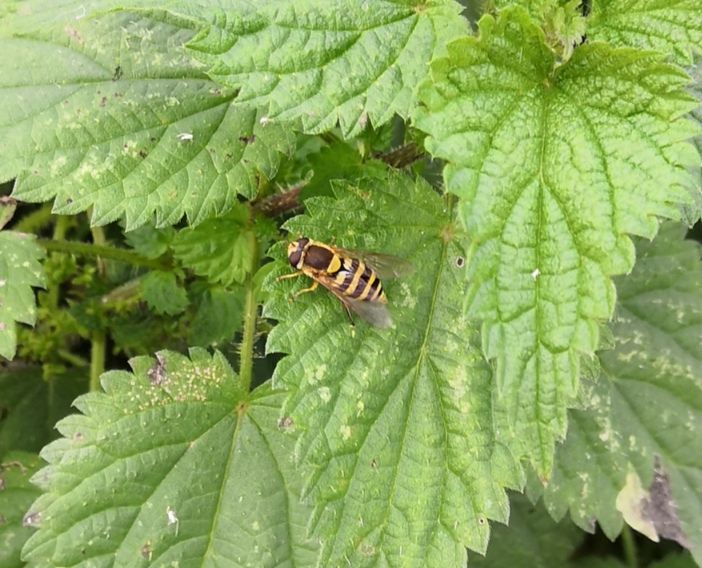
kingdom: Animalia
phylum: Arthropoda
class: Insecta
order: Diptera
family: Syrphidae
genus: Syrphus
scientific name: Syrphus ribesii
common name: Common flower fly
